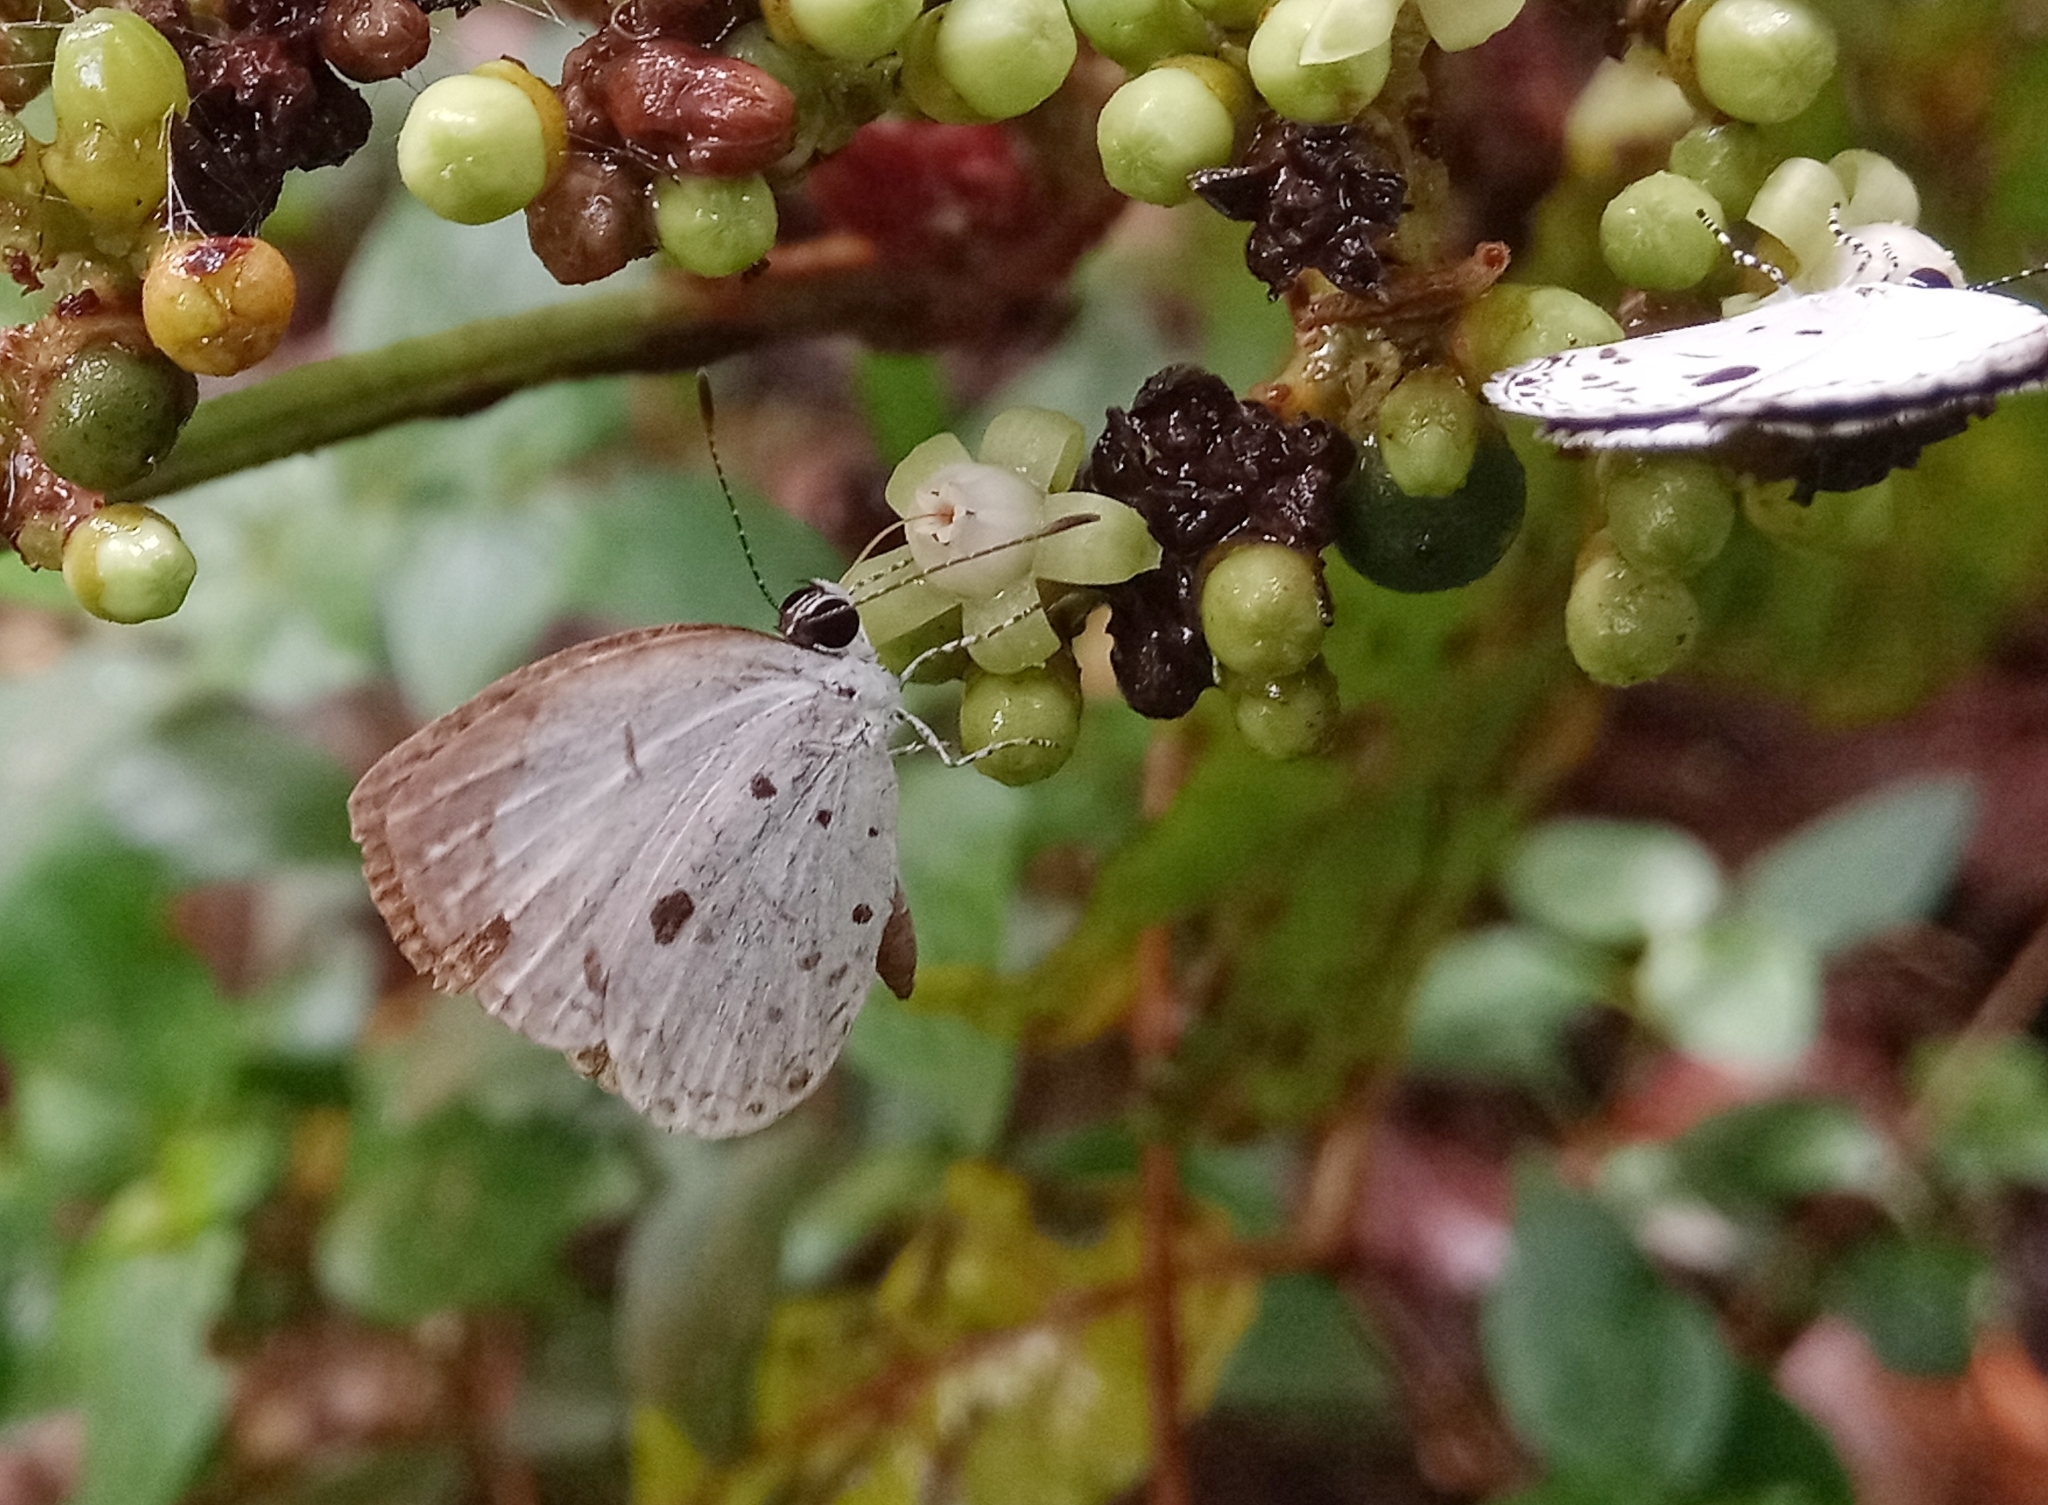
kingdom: Animalia
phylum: Arthropoda
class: Insecta
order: Lepidoptera
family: Lycaenidae
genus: Neopithecops
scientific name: Neopithecops zalmora
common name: Quaker
